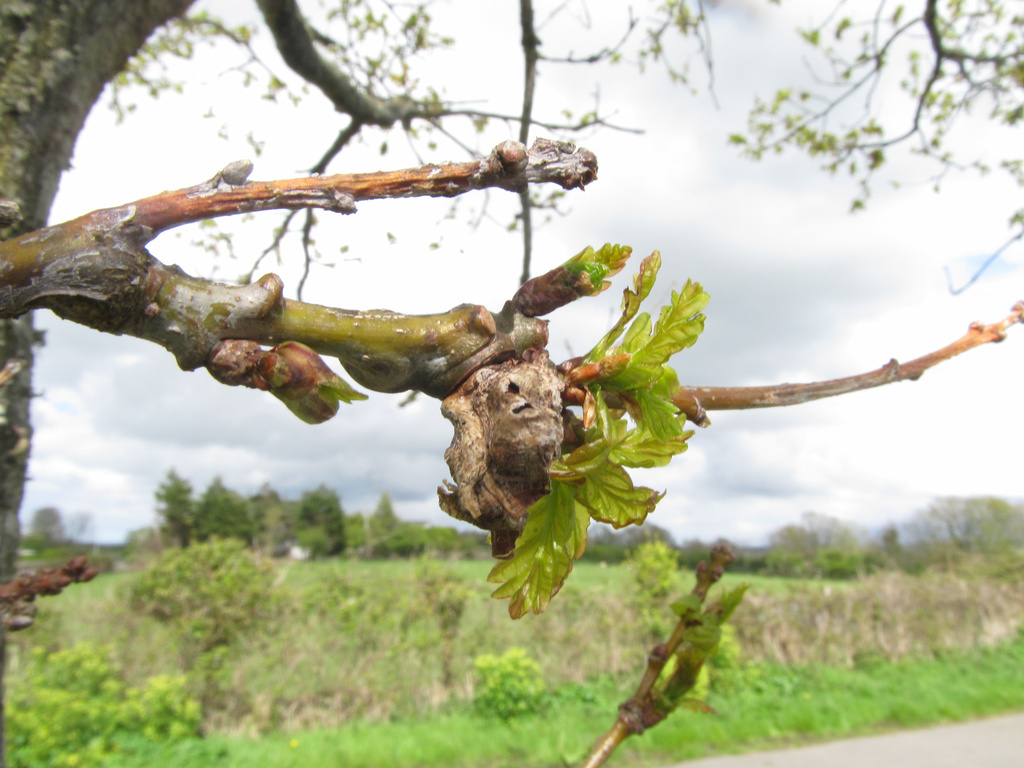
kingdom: Animalia
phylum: Arthropoda
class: Insecta
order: Hymenoptera
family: Cynipidae
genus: Andricus
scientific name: Andricus inflator
